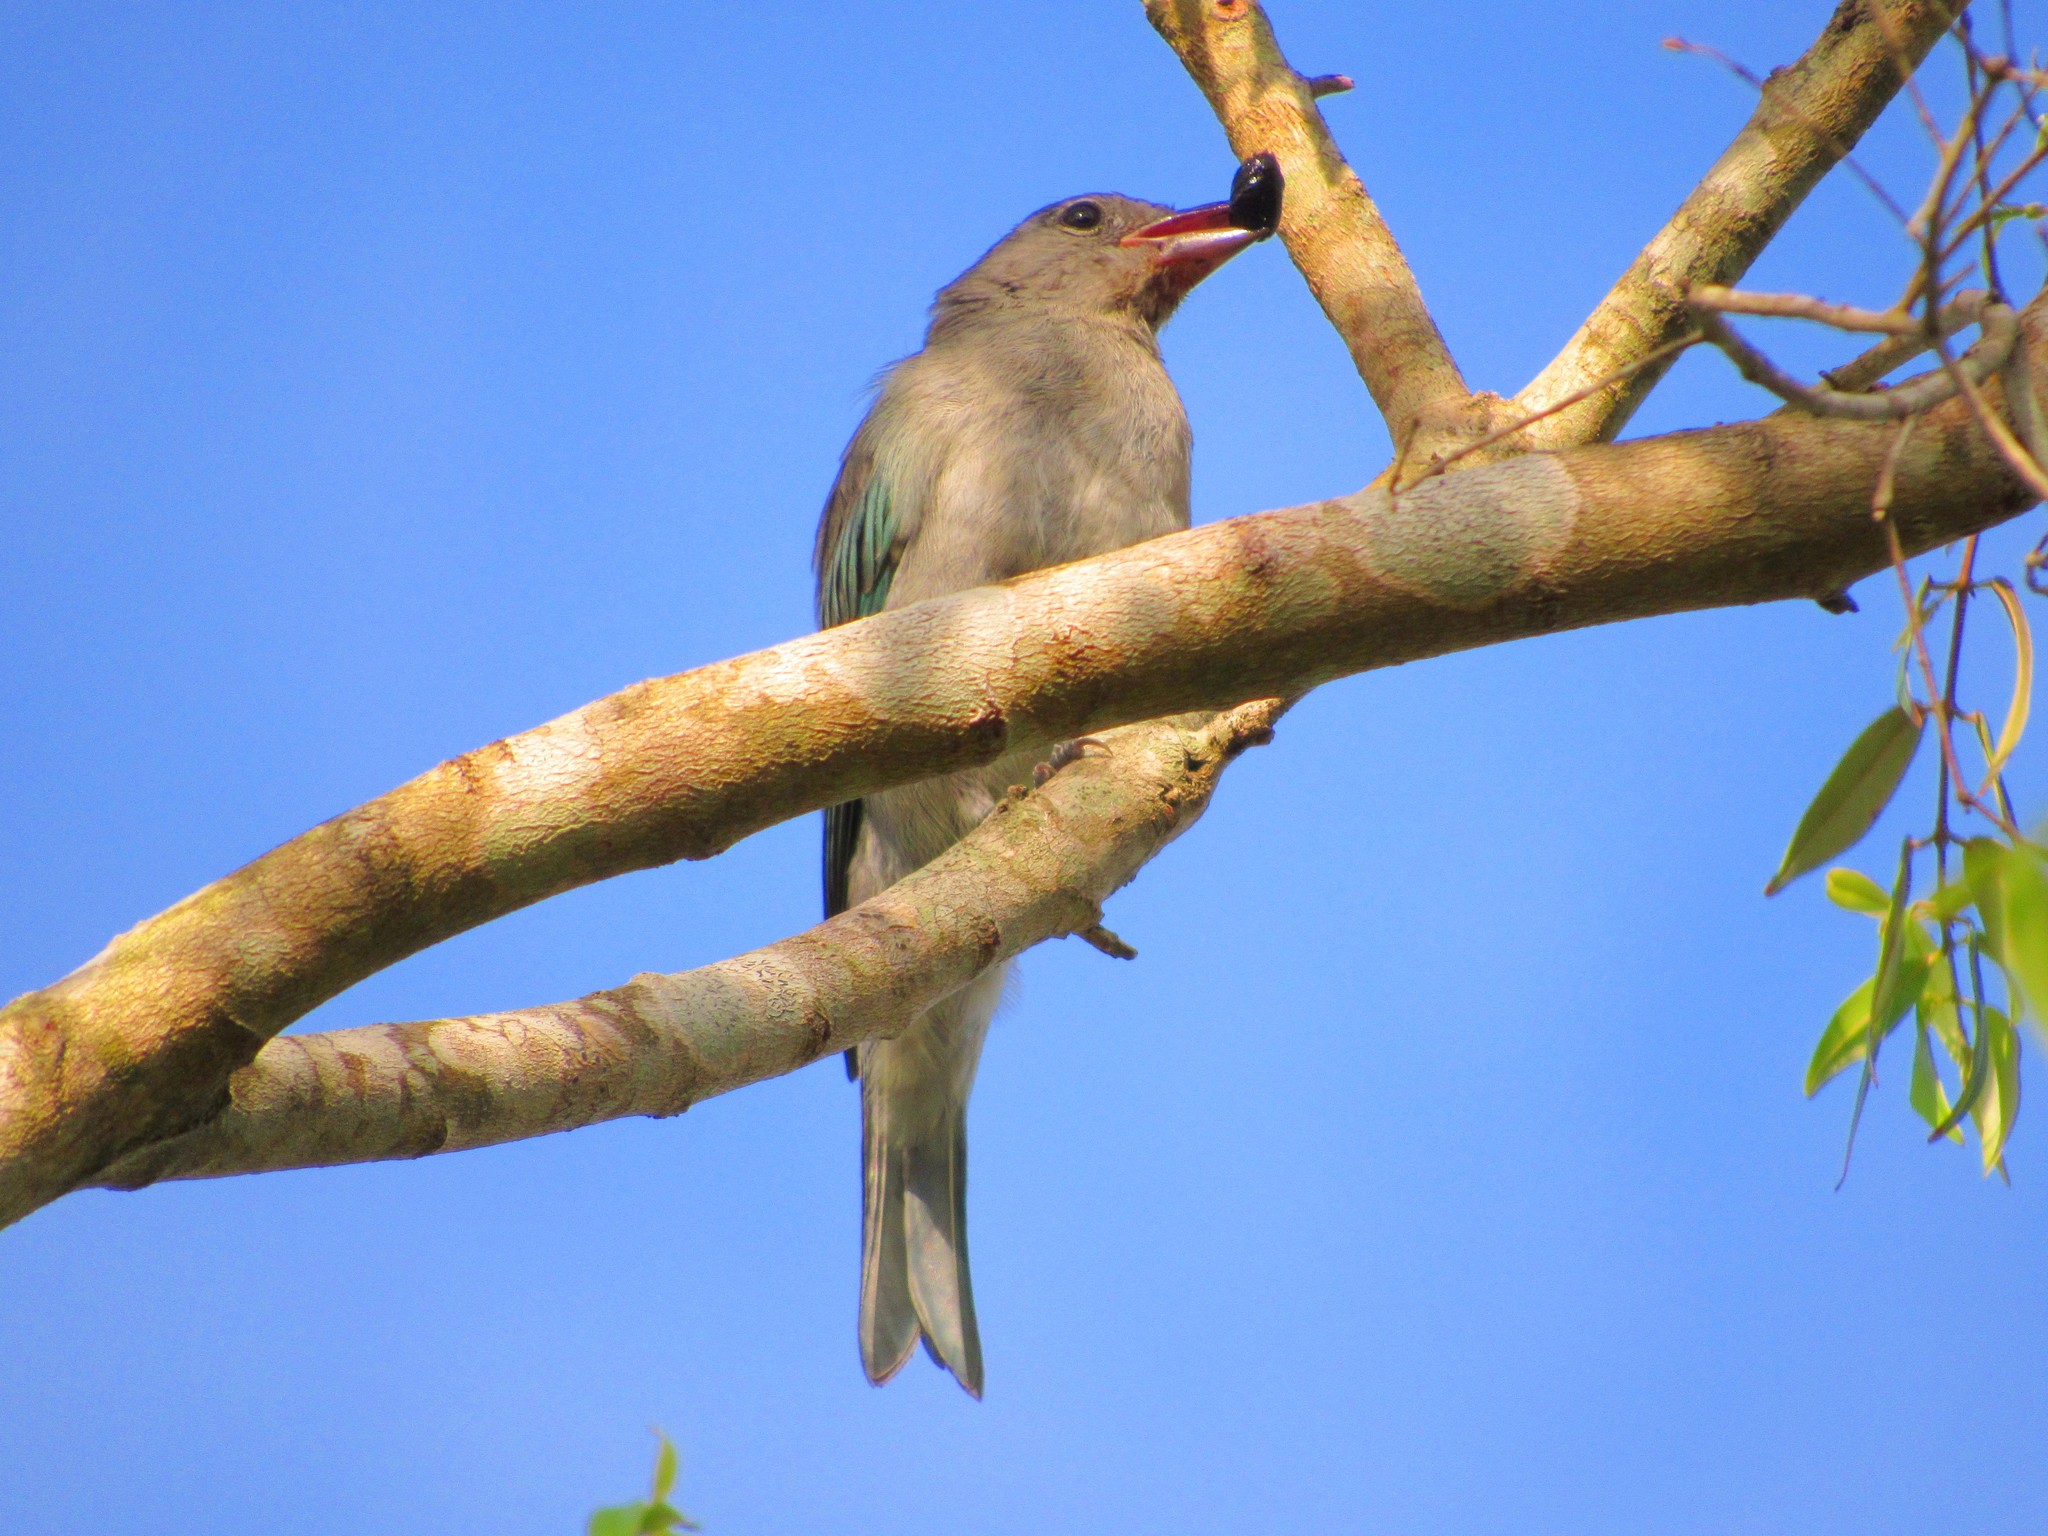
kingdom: Animalia
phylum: Chordata
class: Aves
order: Passeriformes
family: Thraupidae
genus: Thraupis
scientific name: Thraupis sayaca
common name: Sayaca tanager
